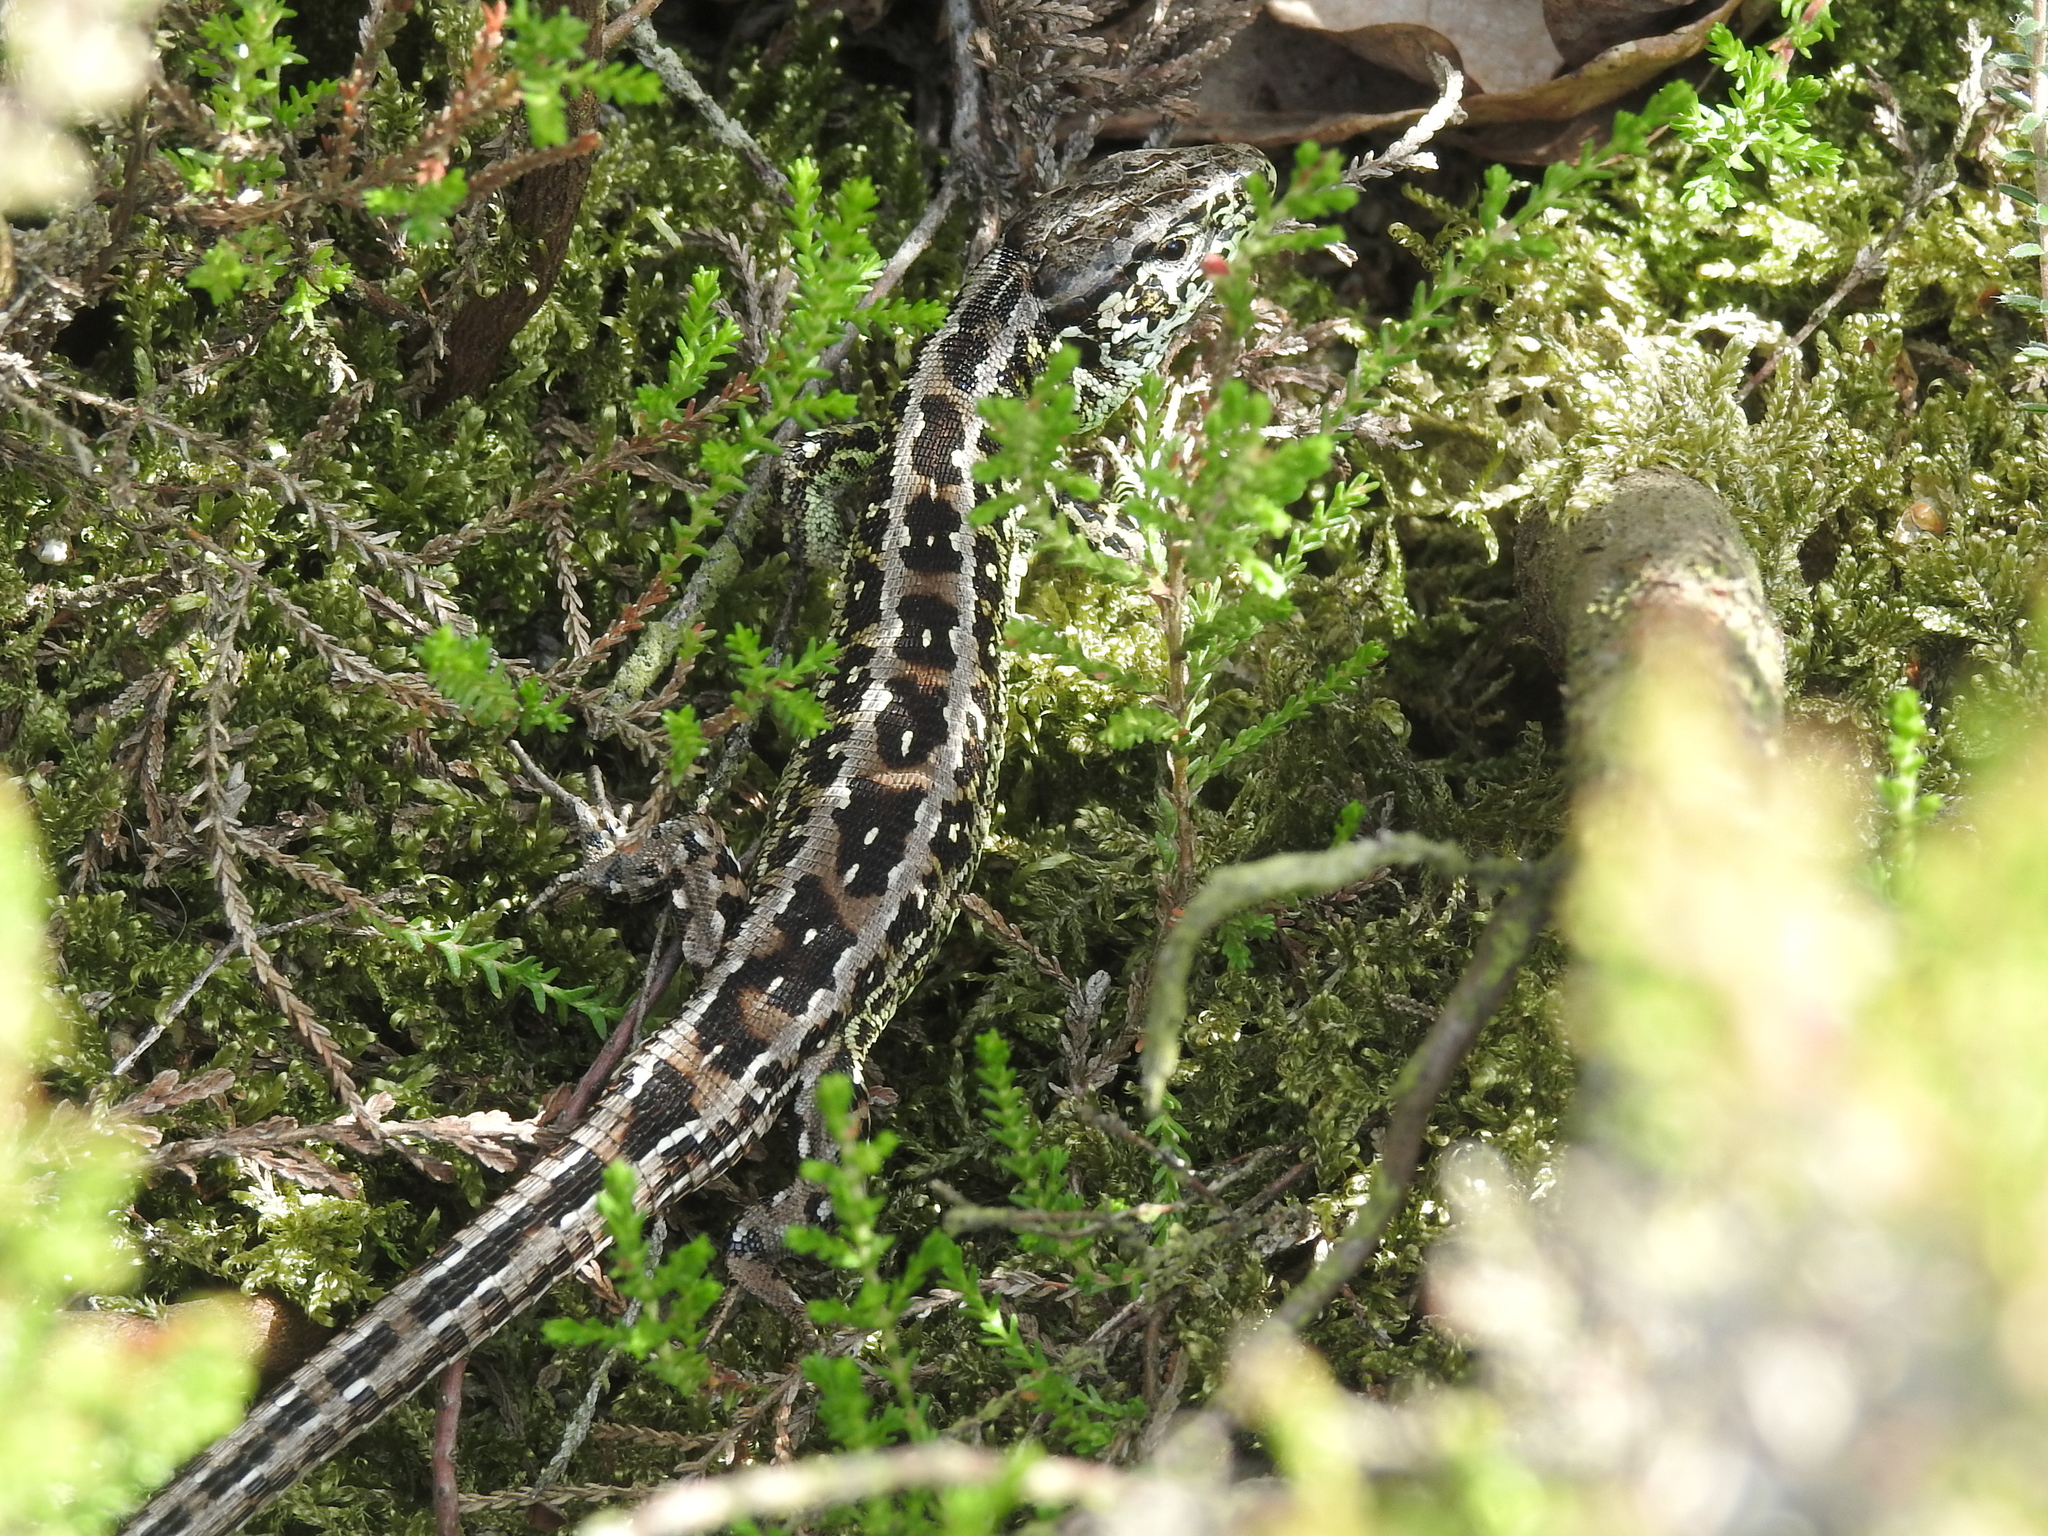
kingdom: Animalia
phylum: Chordata
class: Squamata
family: Lacertidae
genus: Lacerta
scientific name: Lacerta agilis
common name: Sand lizard
